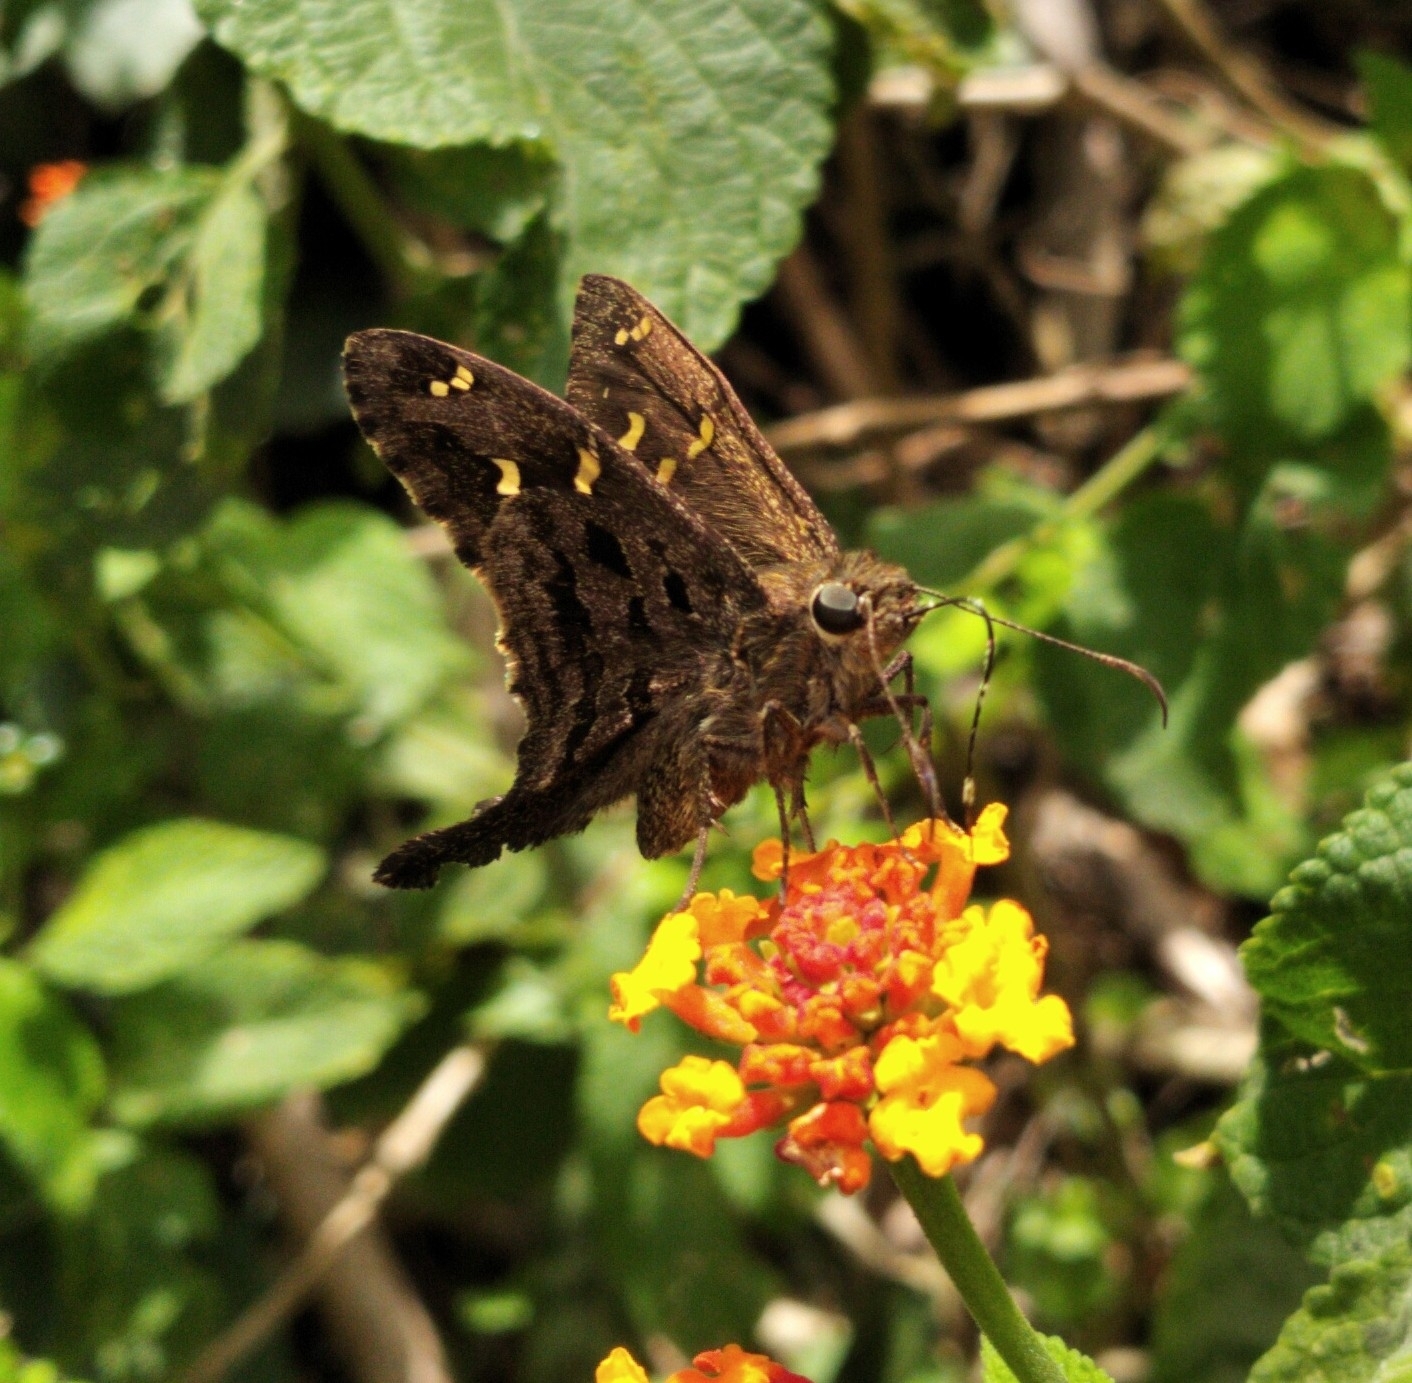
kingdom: Animalia
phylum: Arthropoda
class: Insecta
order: Lepidoptera
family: Hesperiidae
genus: Thorybes
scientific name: Thorybes
